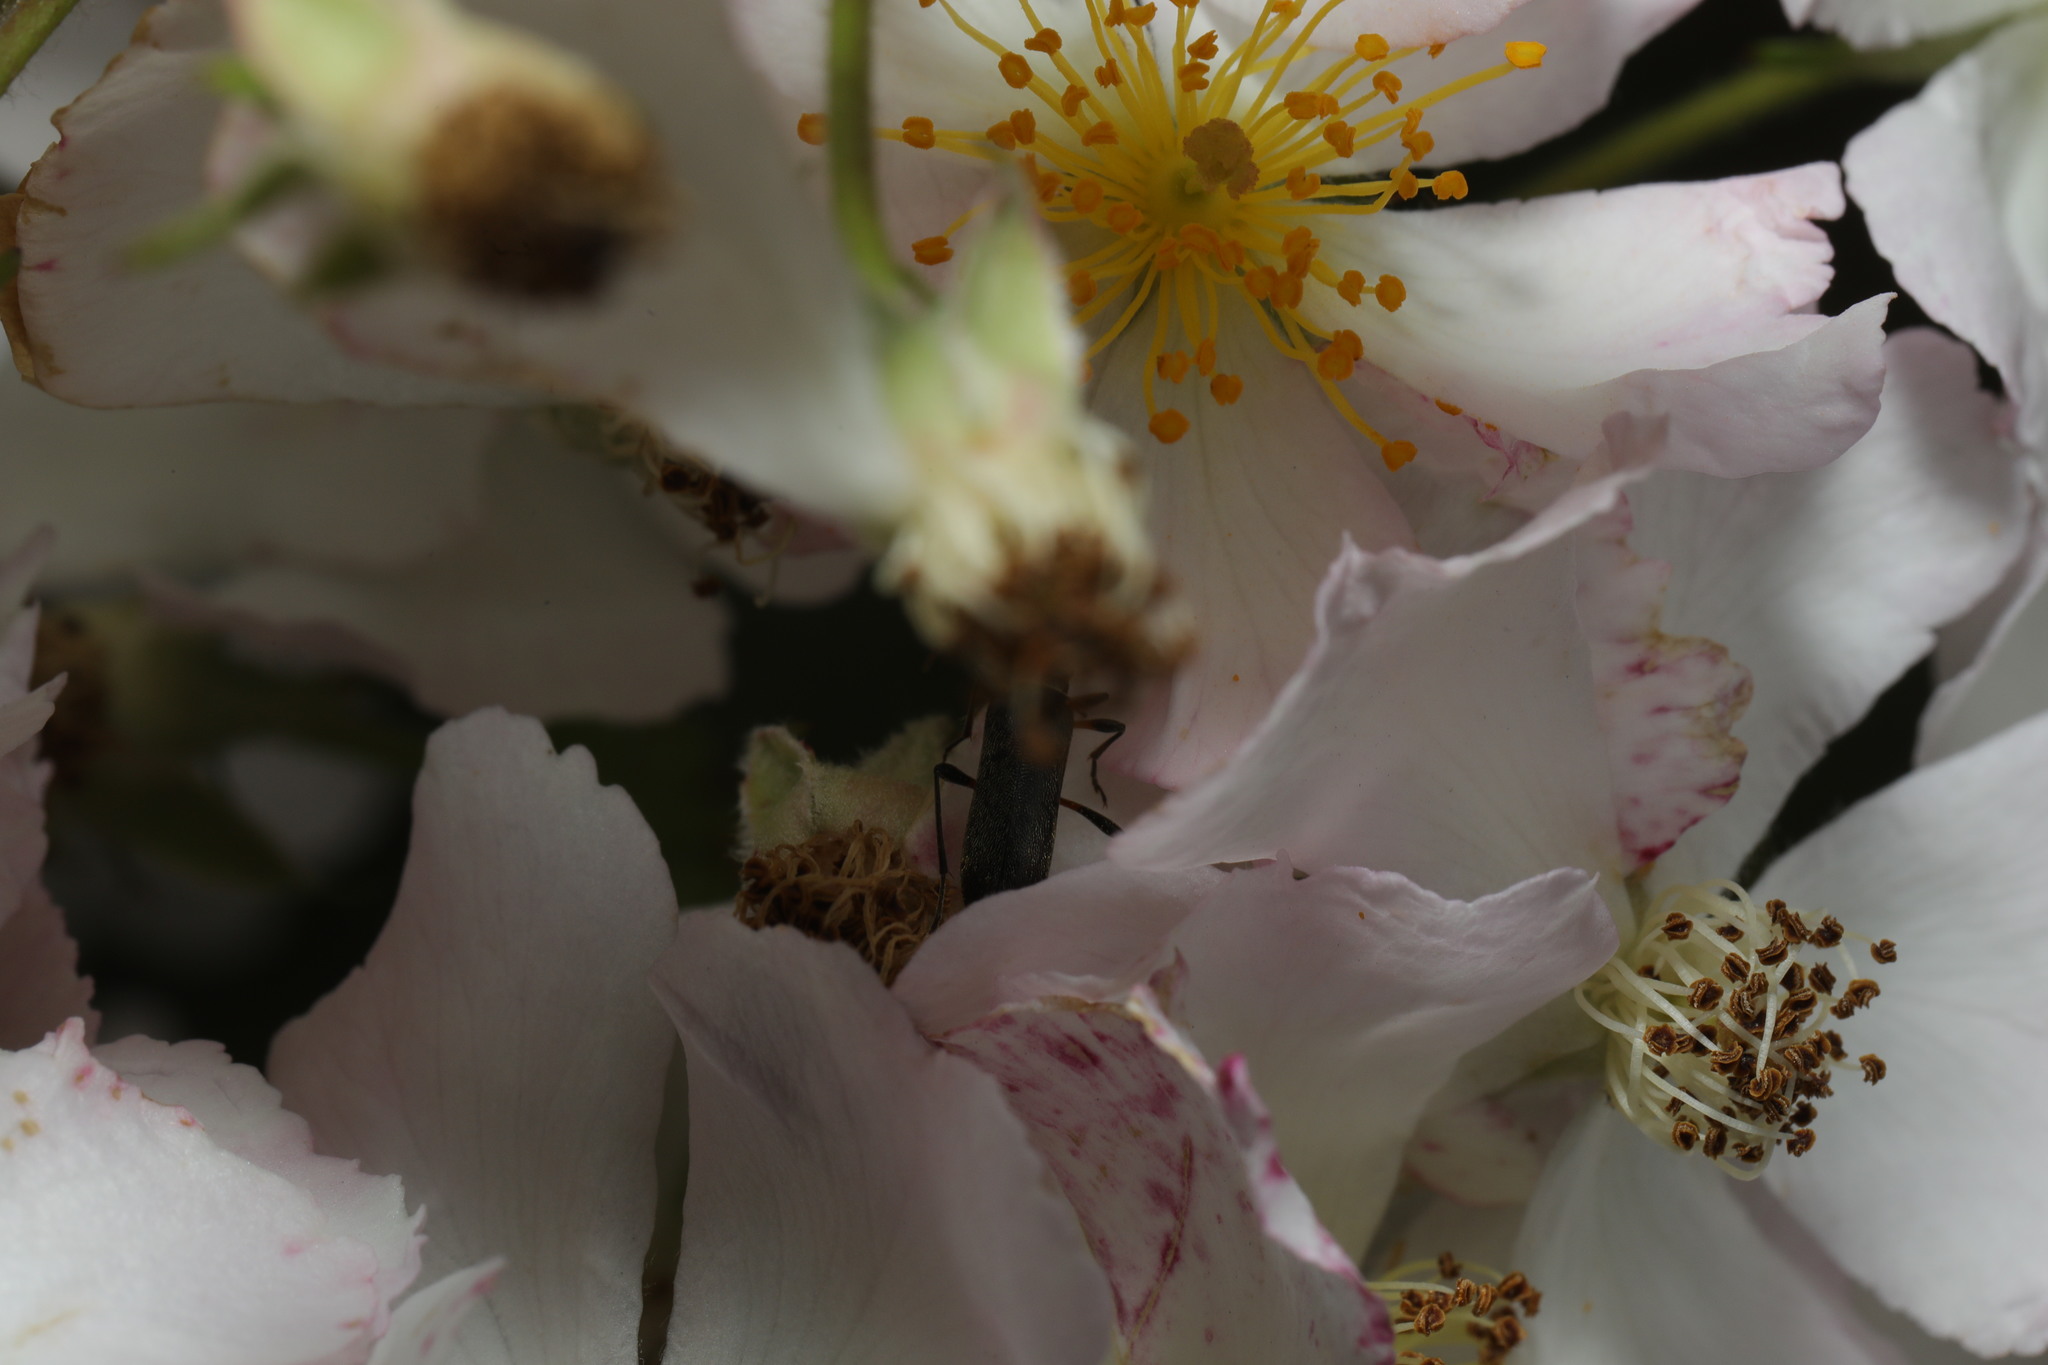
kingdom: Animalia
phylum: Arthropoda
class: Insecta
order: Coleoptera
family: Cerambycidae
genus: Grammoptera
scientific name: Grammoptera ruficornis
